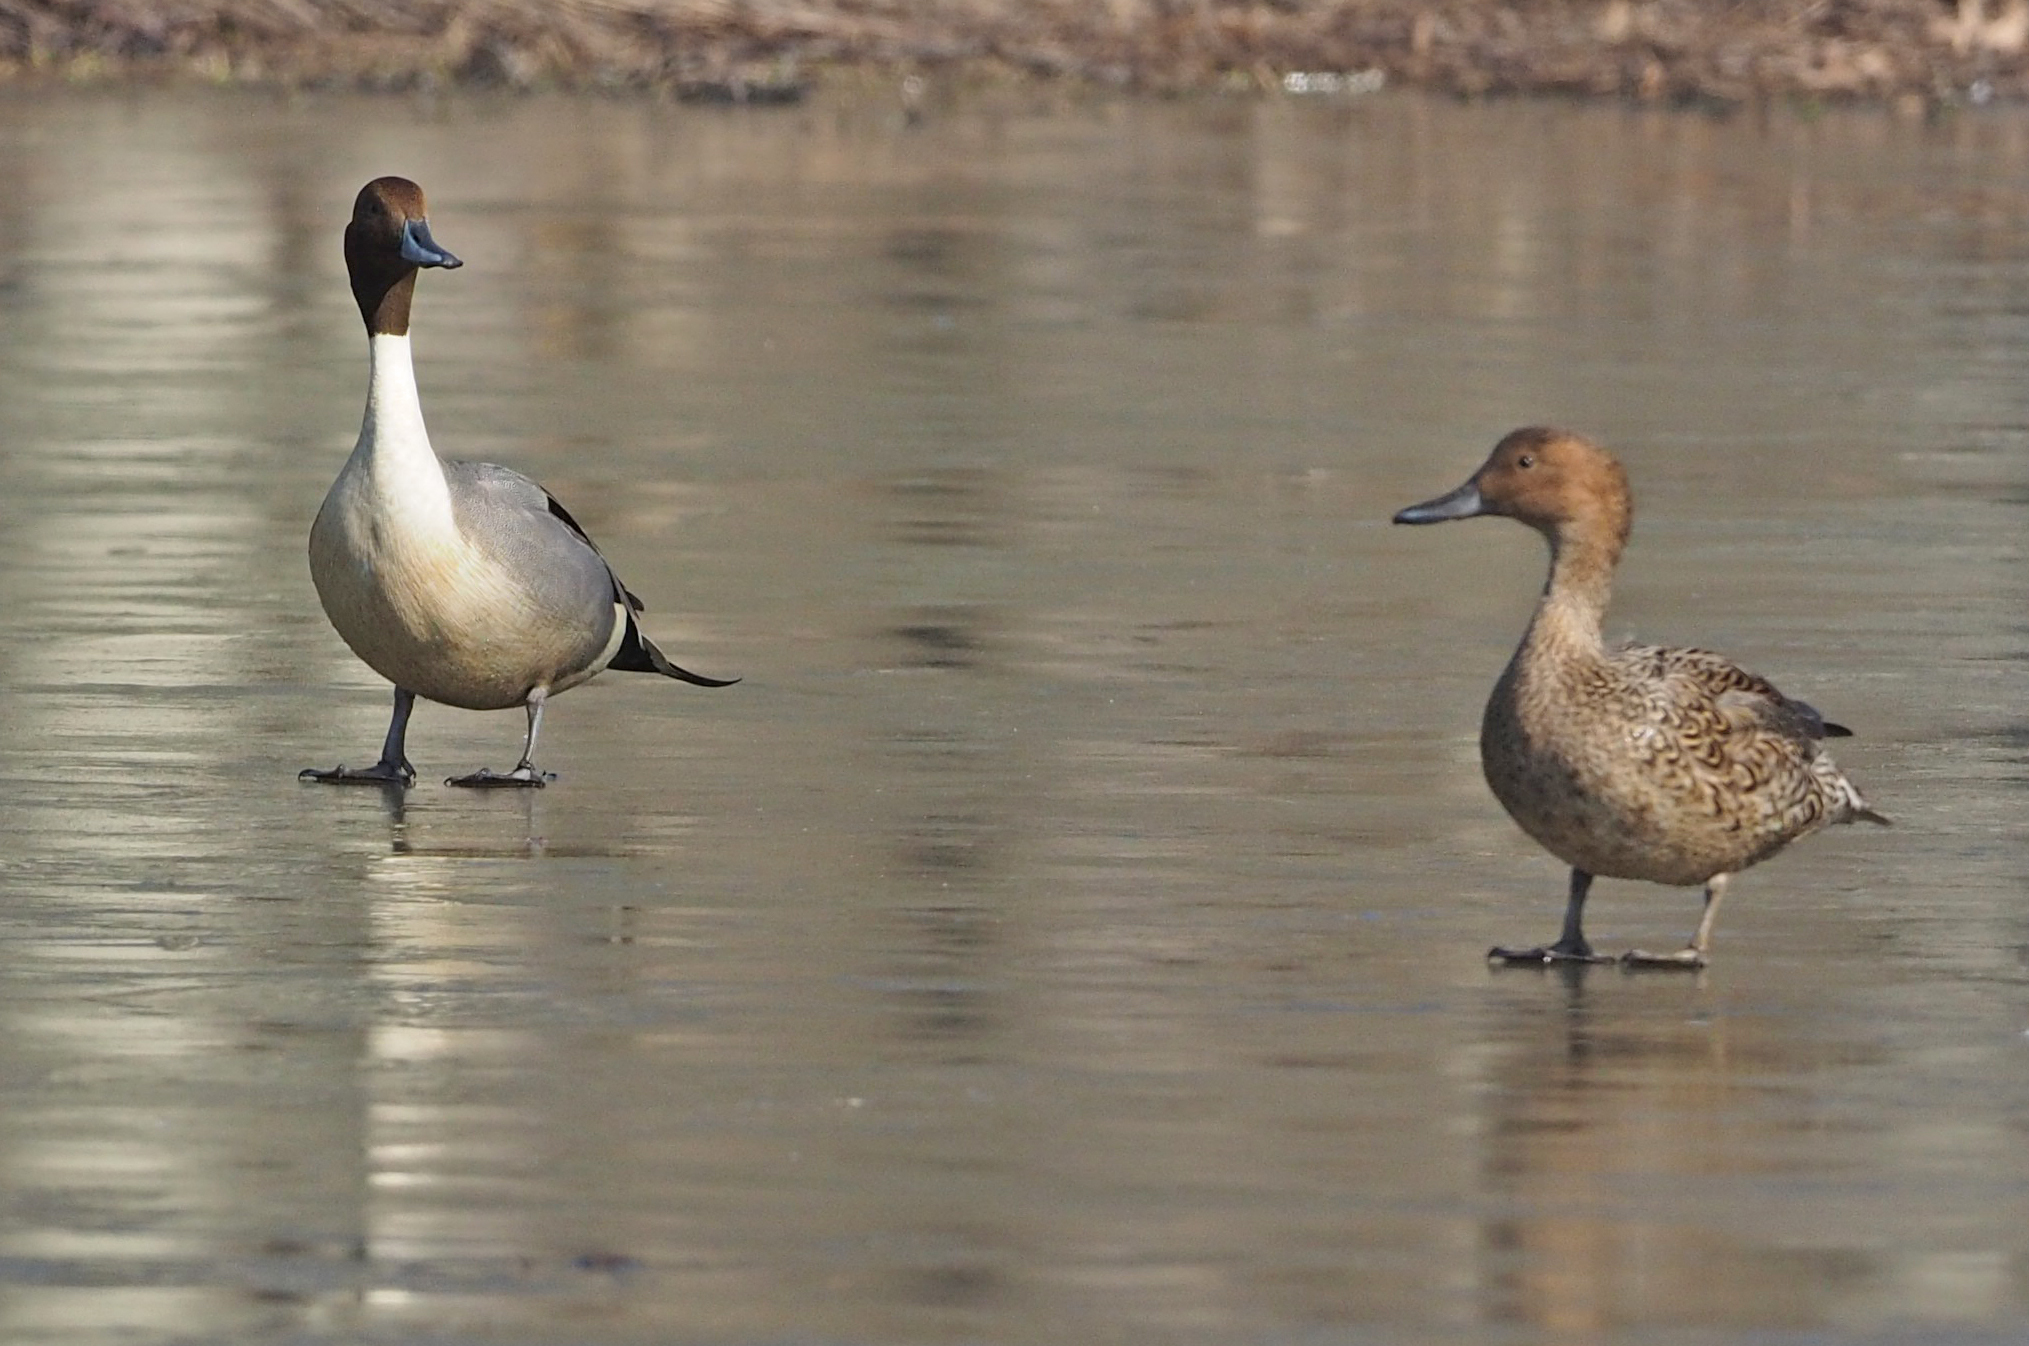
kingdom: Animalia
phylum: Chordata
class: Aves
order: Anseriformes
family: Anatidae
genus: Anas
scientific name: Anas acuta
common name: Northern pintail
